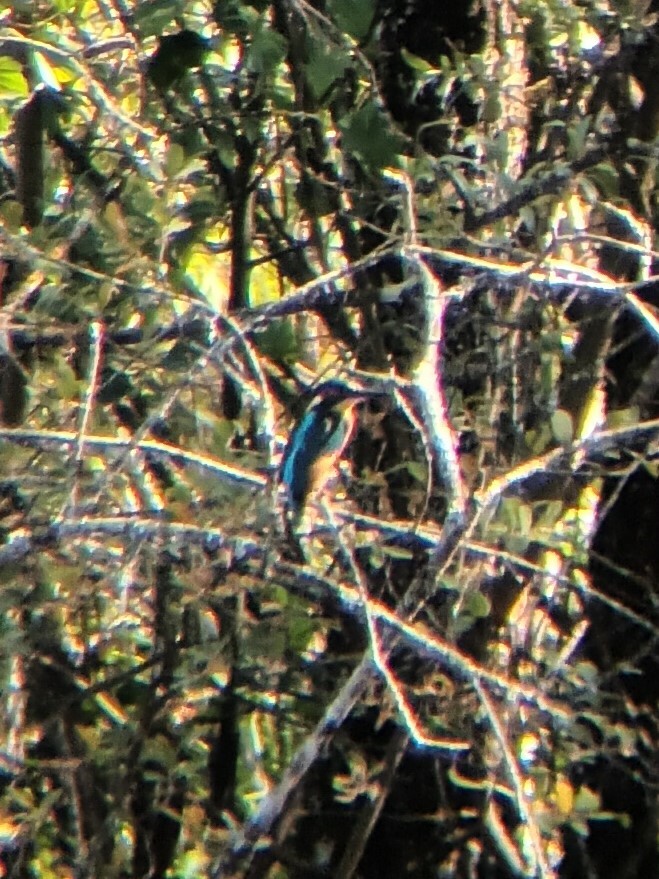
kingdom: Animalia
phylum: Chordata
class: Aves
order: Coraciiformes
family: Alcedinidae
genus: Alcedo
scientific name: Alcedo atthis
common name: Common kingfisher
